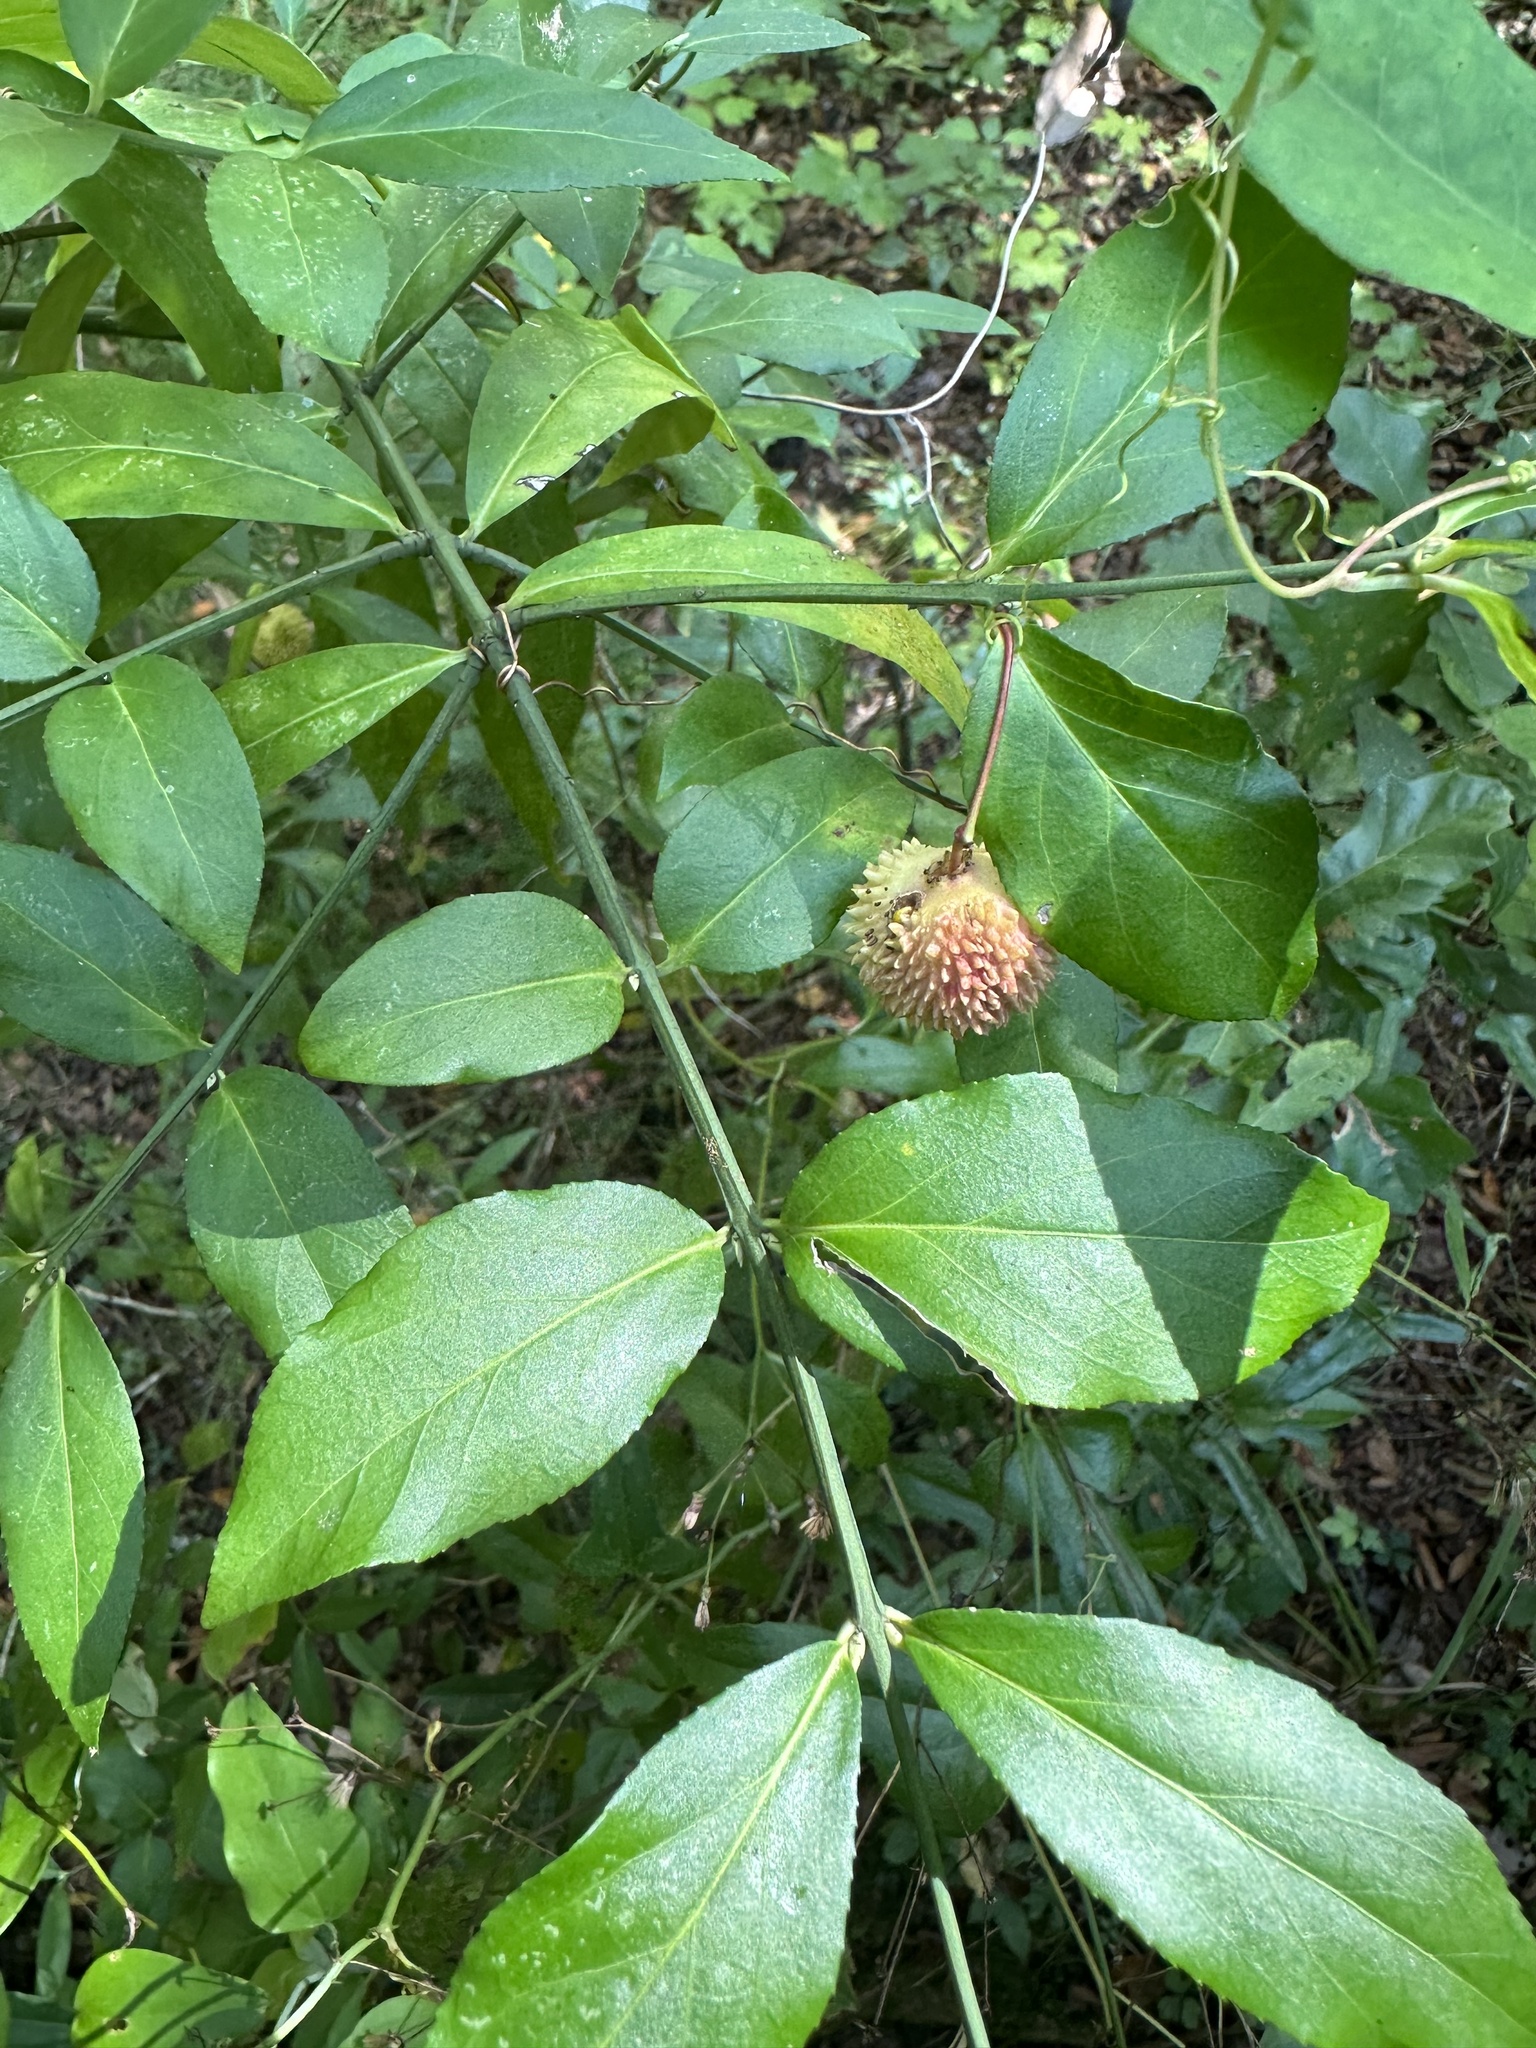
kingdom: Plantae
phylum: Tracheophyta
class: Magnoliopsida
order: Celastrales
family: Celastraceae
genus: Euonymus
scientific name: Euonymus americanus
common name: Bursting-heart
